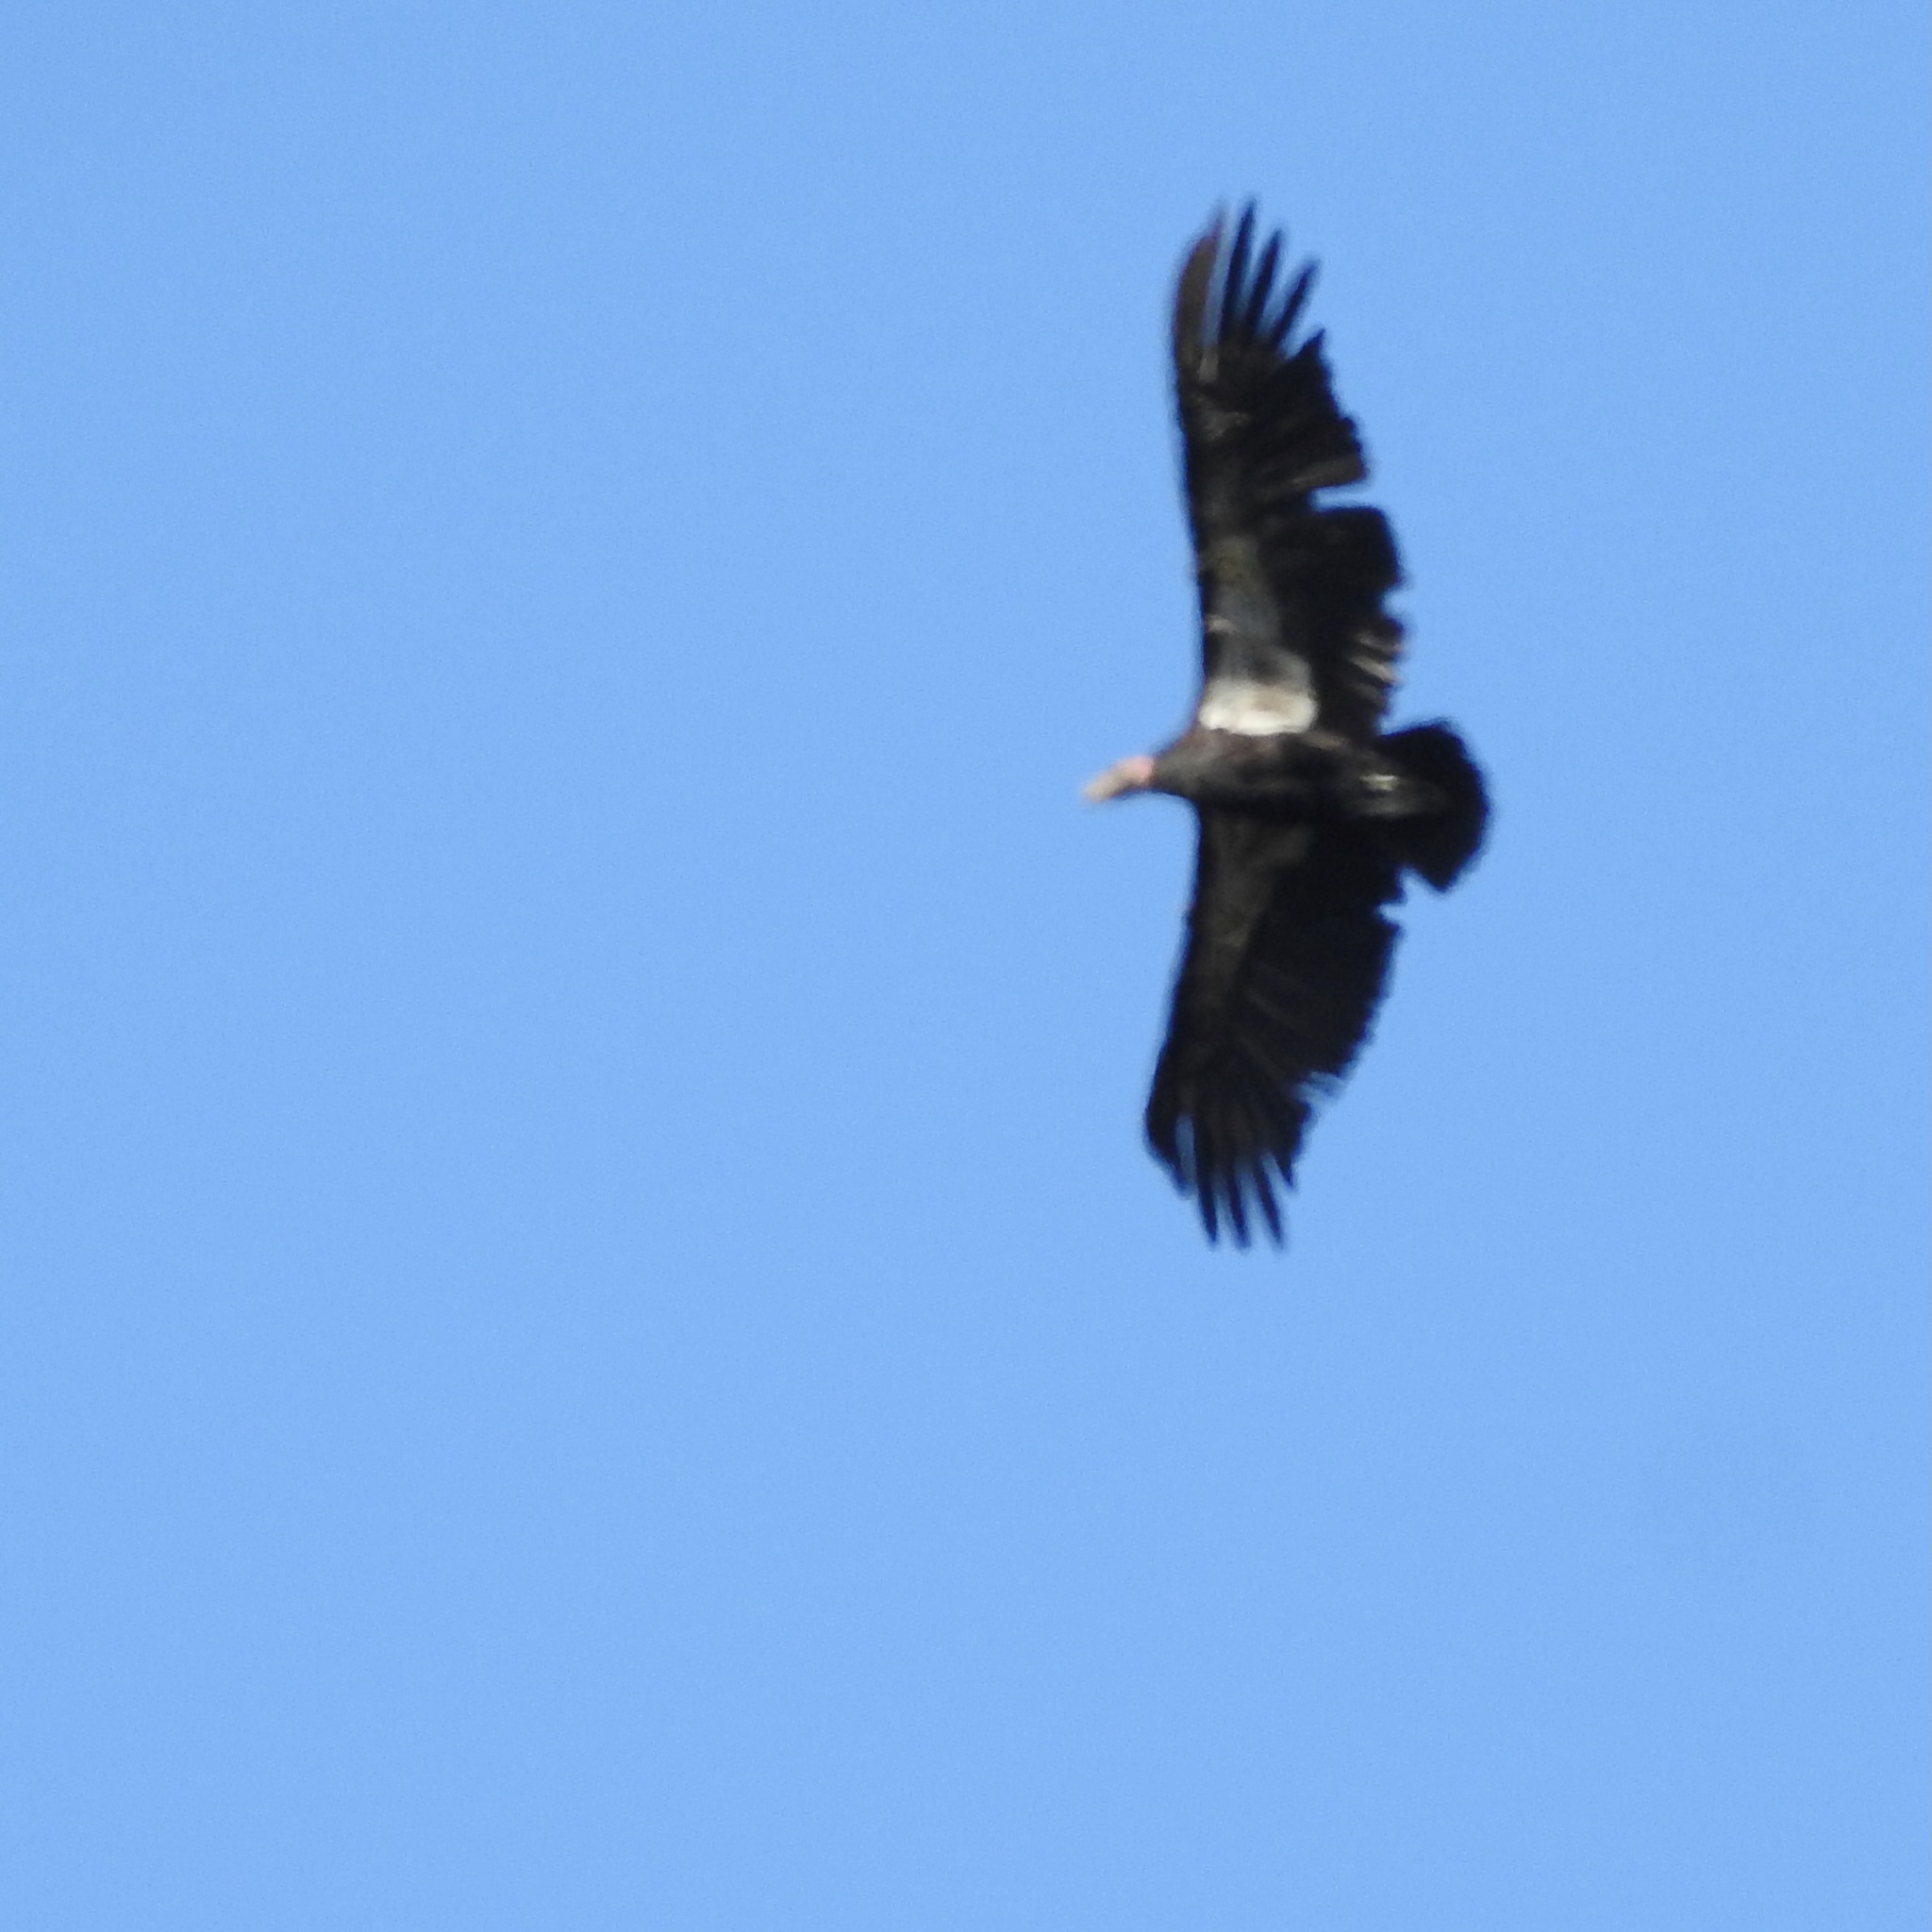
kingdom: Animalia
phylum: Chordata
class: Aves
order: Accipitriformes
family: Cathartidae
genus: Gymnogyps
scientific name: Gymnogyps californianus
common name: California condor
